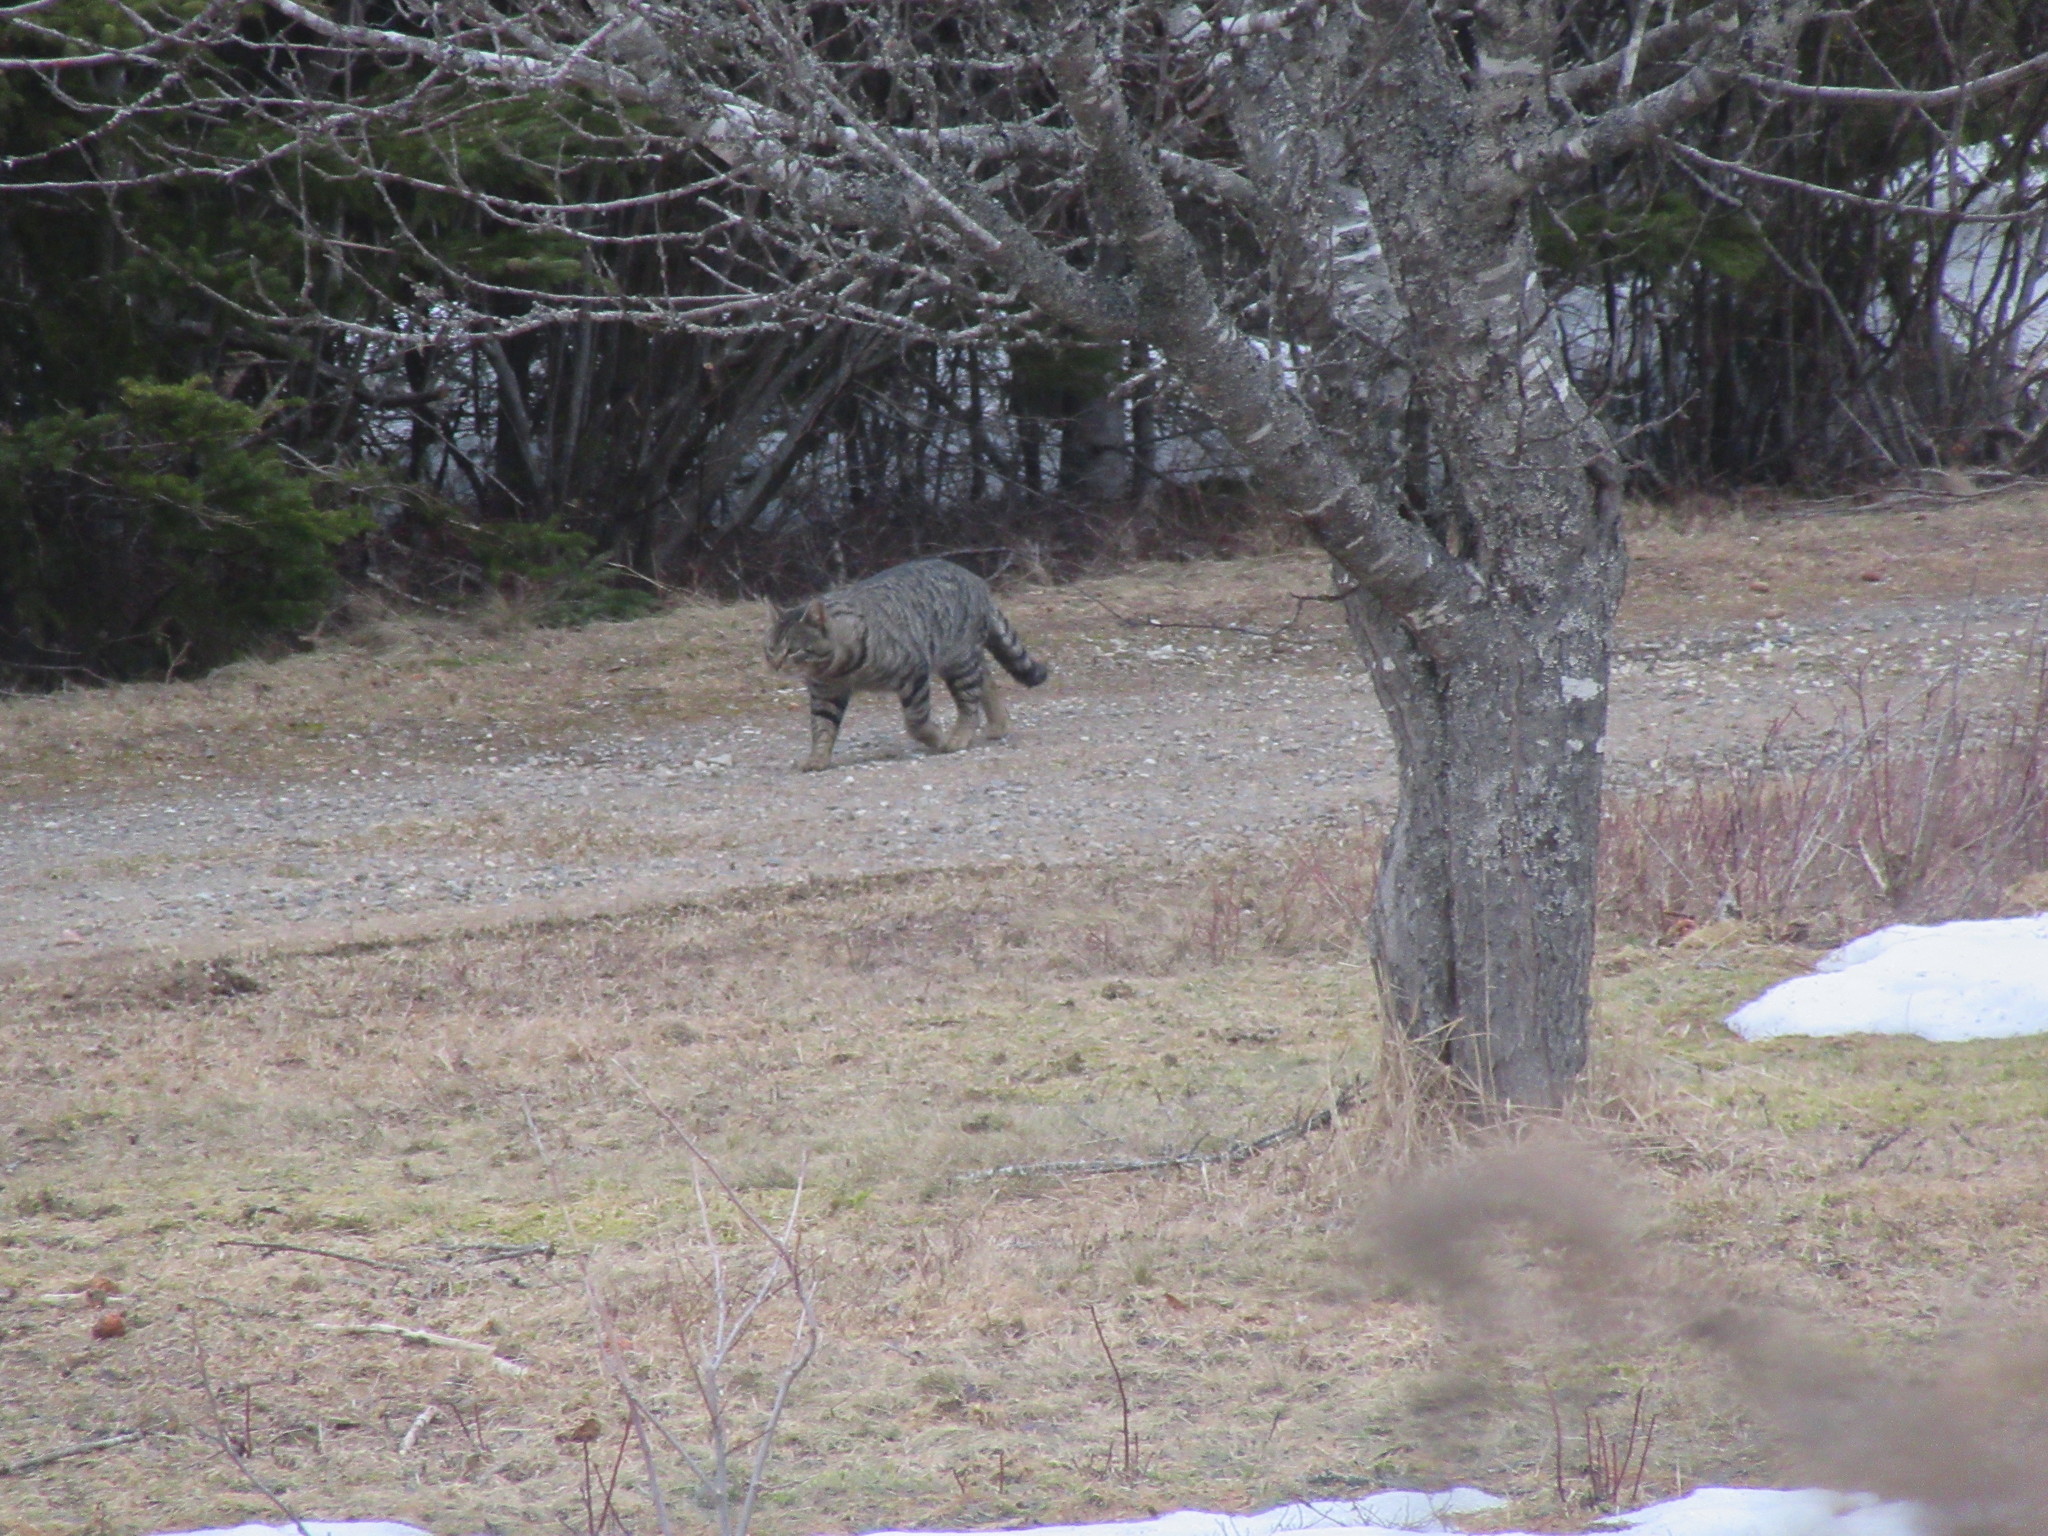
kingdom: Animalia
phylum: Chordata
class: Mammalia
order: Carnivora
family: Felidae
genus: Felis
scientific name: Felis catus
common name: Domestic cat
